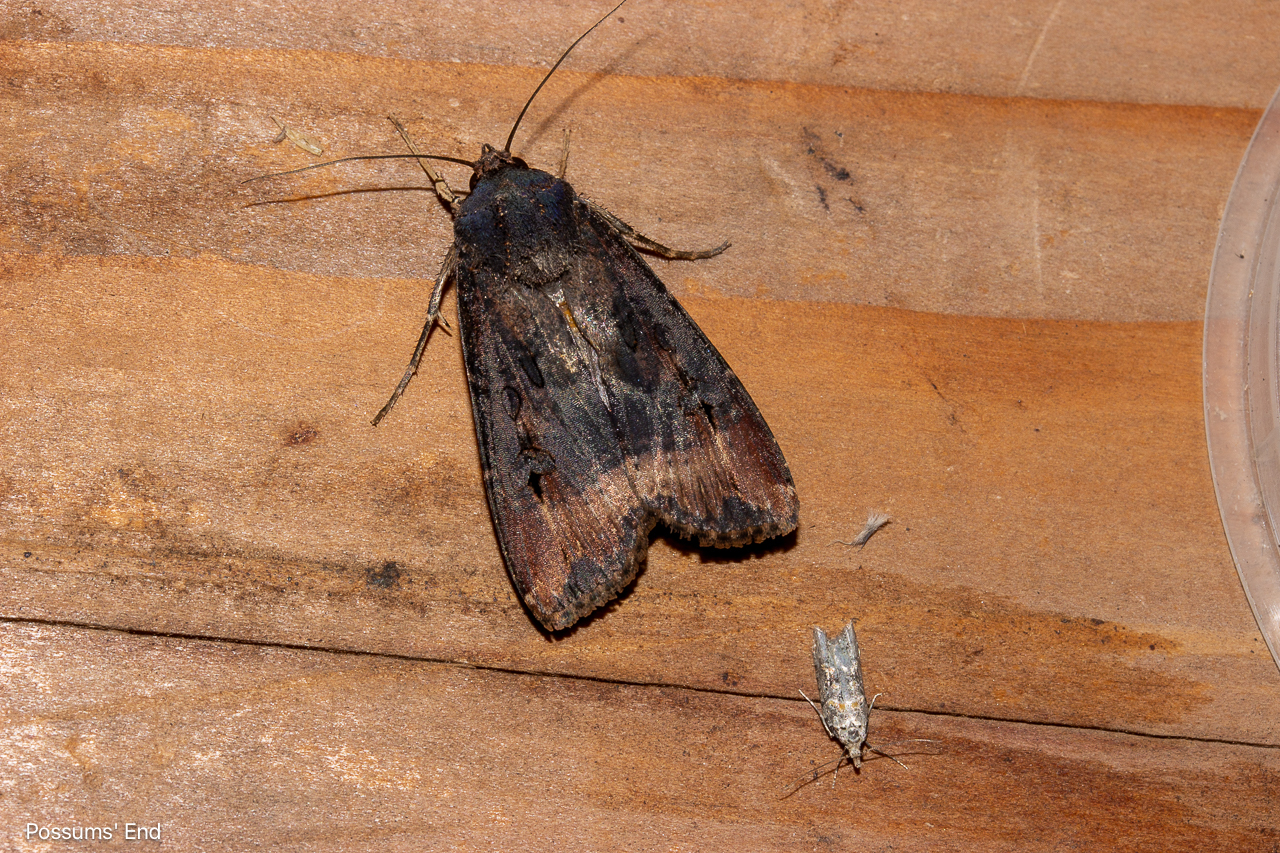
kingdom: Animalia
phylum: Arthropoda
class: Insecta
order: Lepidoptera
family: Noctuidae
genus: Agrotis
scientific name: Agrotis ipsilon
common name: Dark sword-grass
